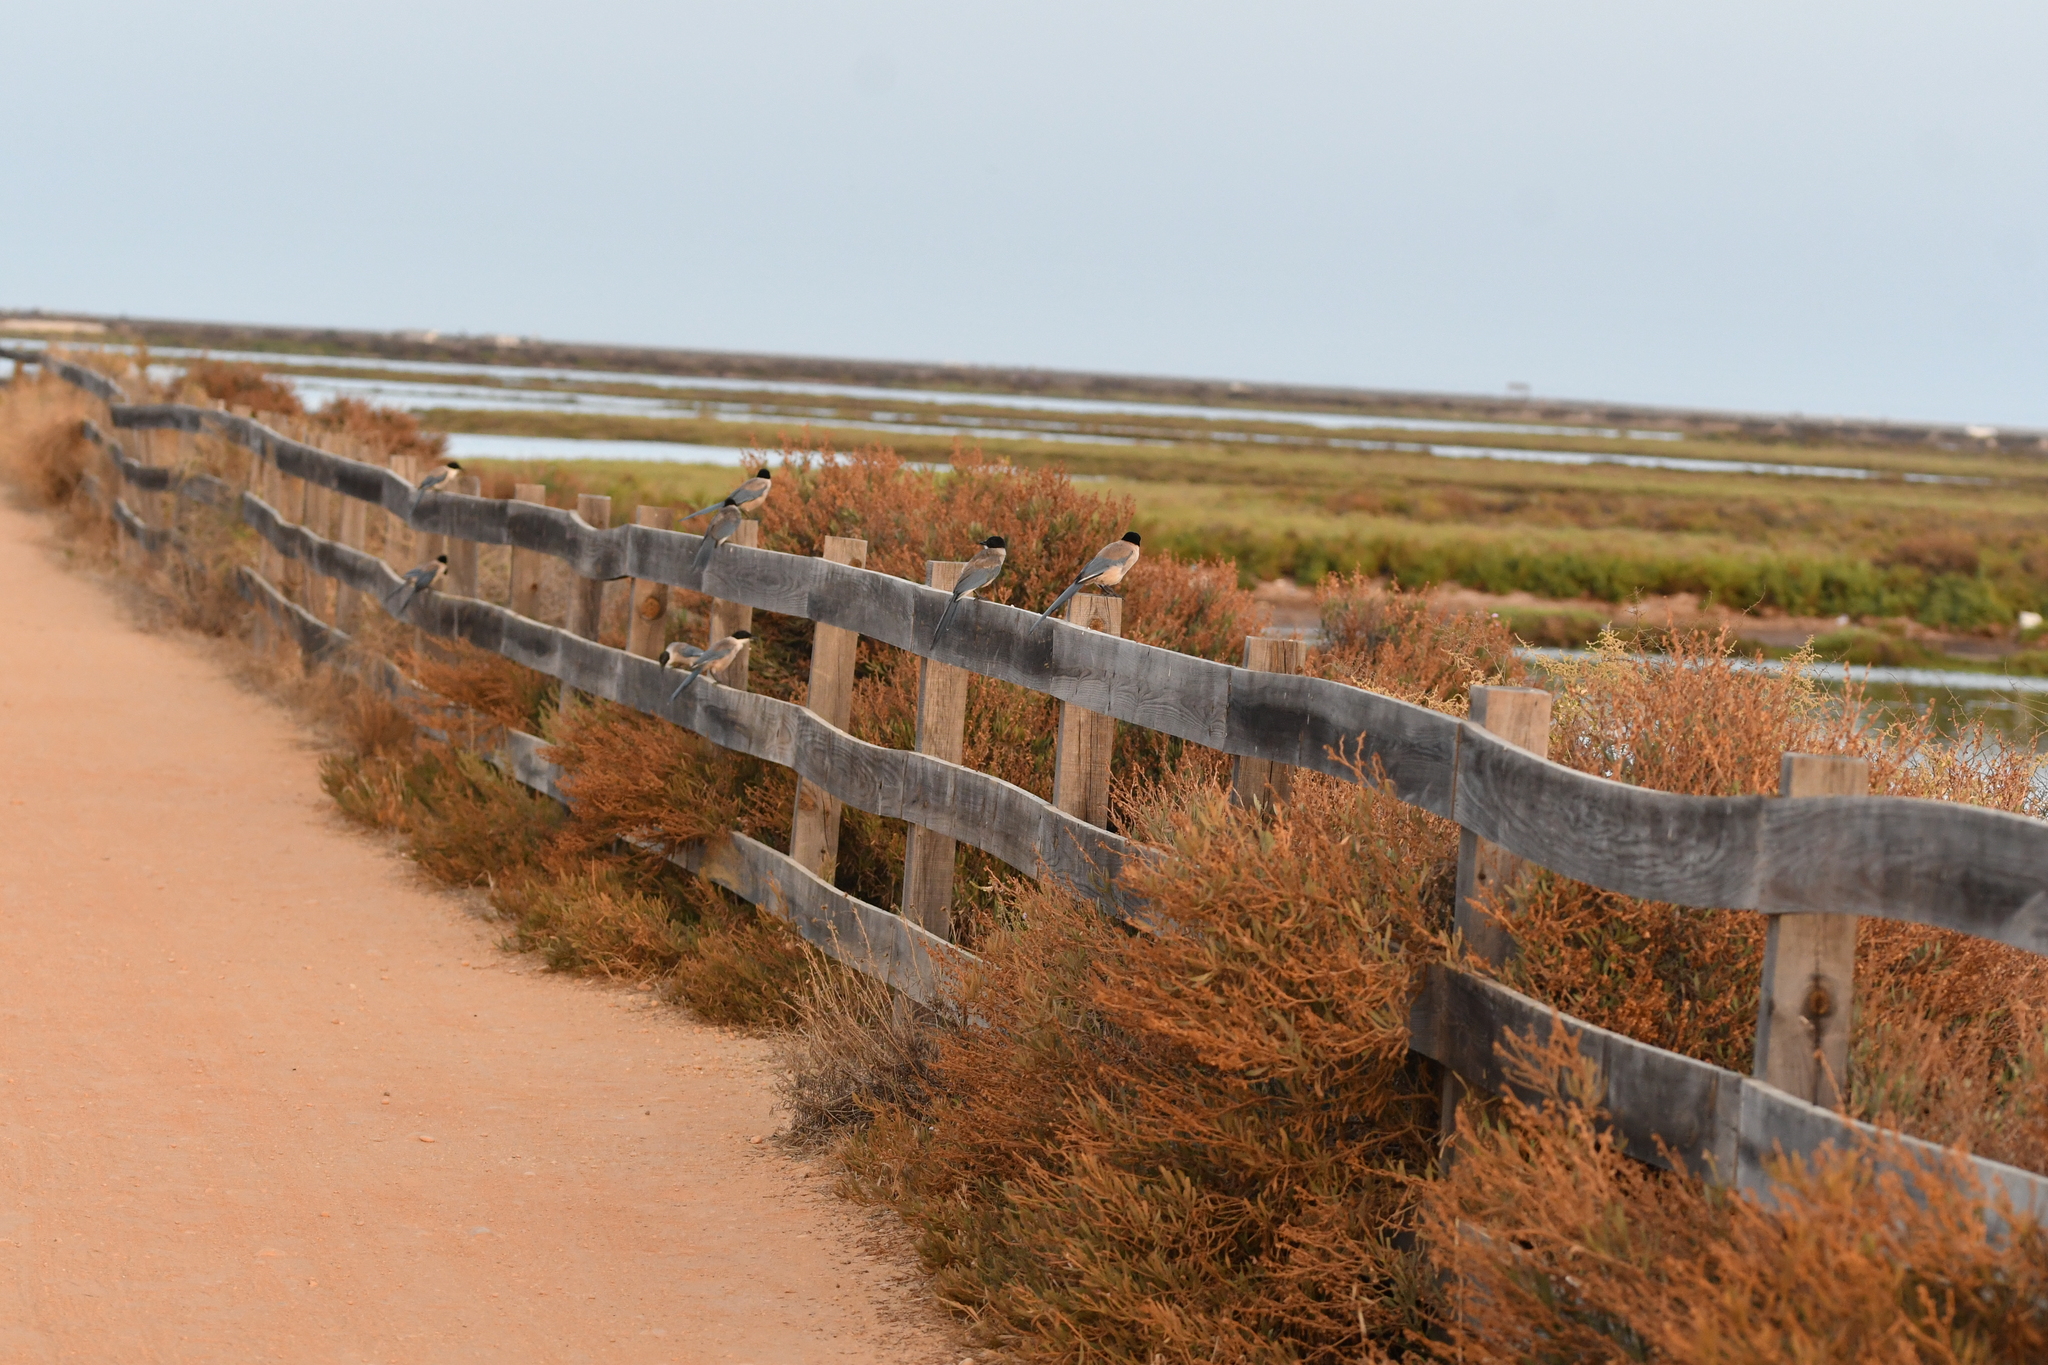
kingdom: Animalia
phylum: Chordata
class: Aves
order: Passeriformes
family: Corvidae
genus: Cyanopica
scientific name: Cyanopica cooki
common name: Iberian magpie
